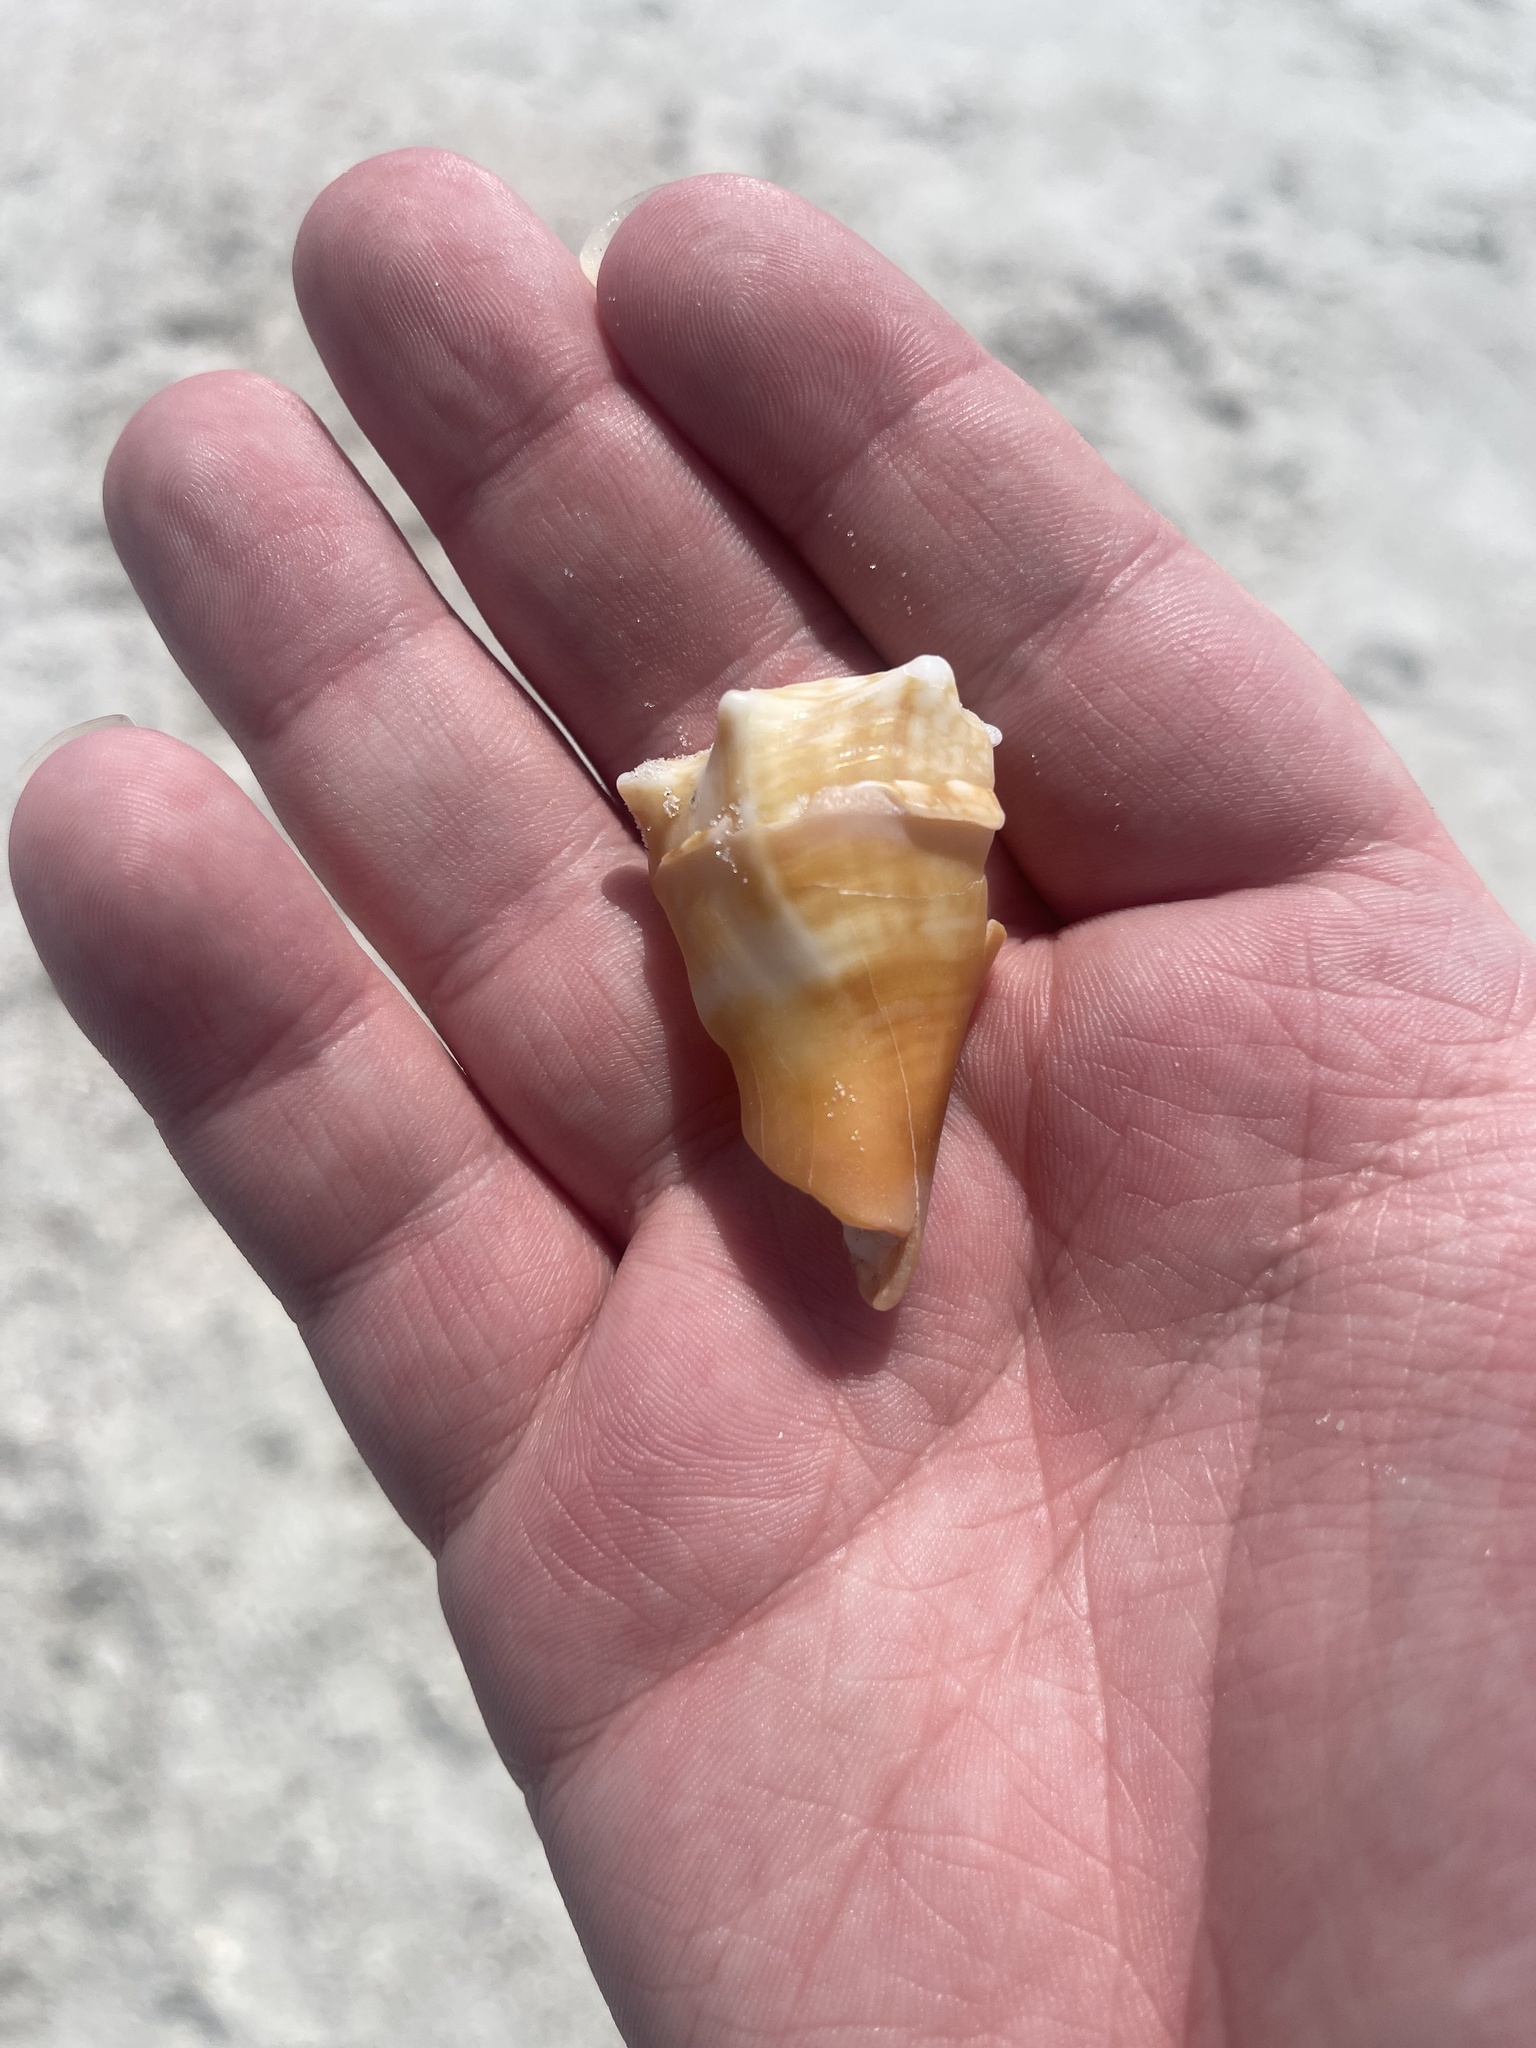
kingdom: Animalia
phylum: Mollusca
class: Gastropoda
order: Littorinimorpha
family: Strombidae
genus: Strombus
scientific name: Strombus alatus
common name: Florida fighting conch
